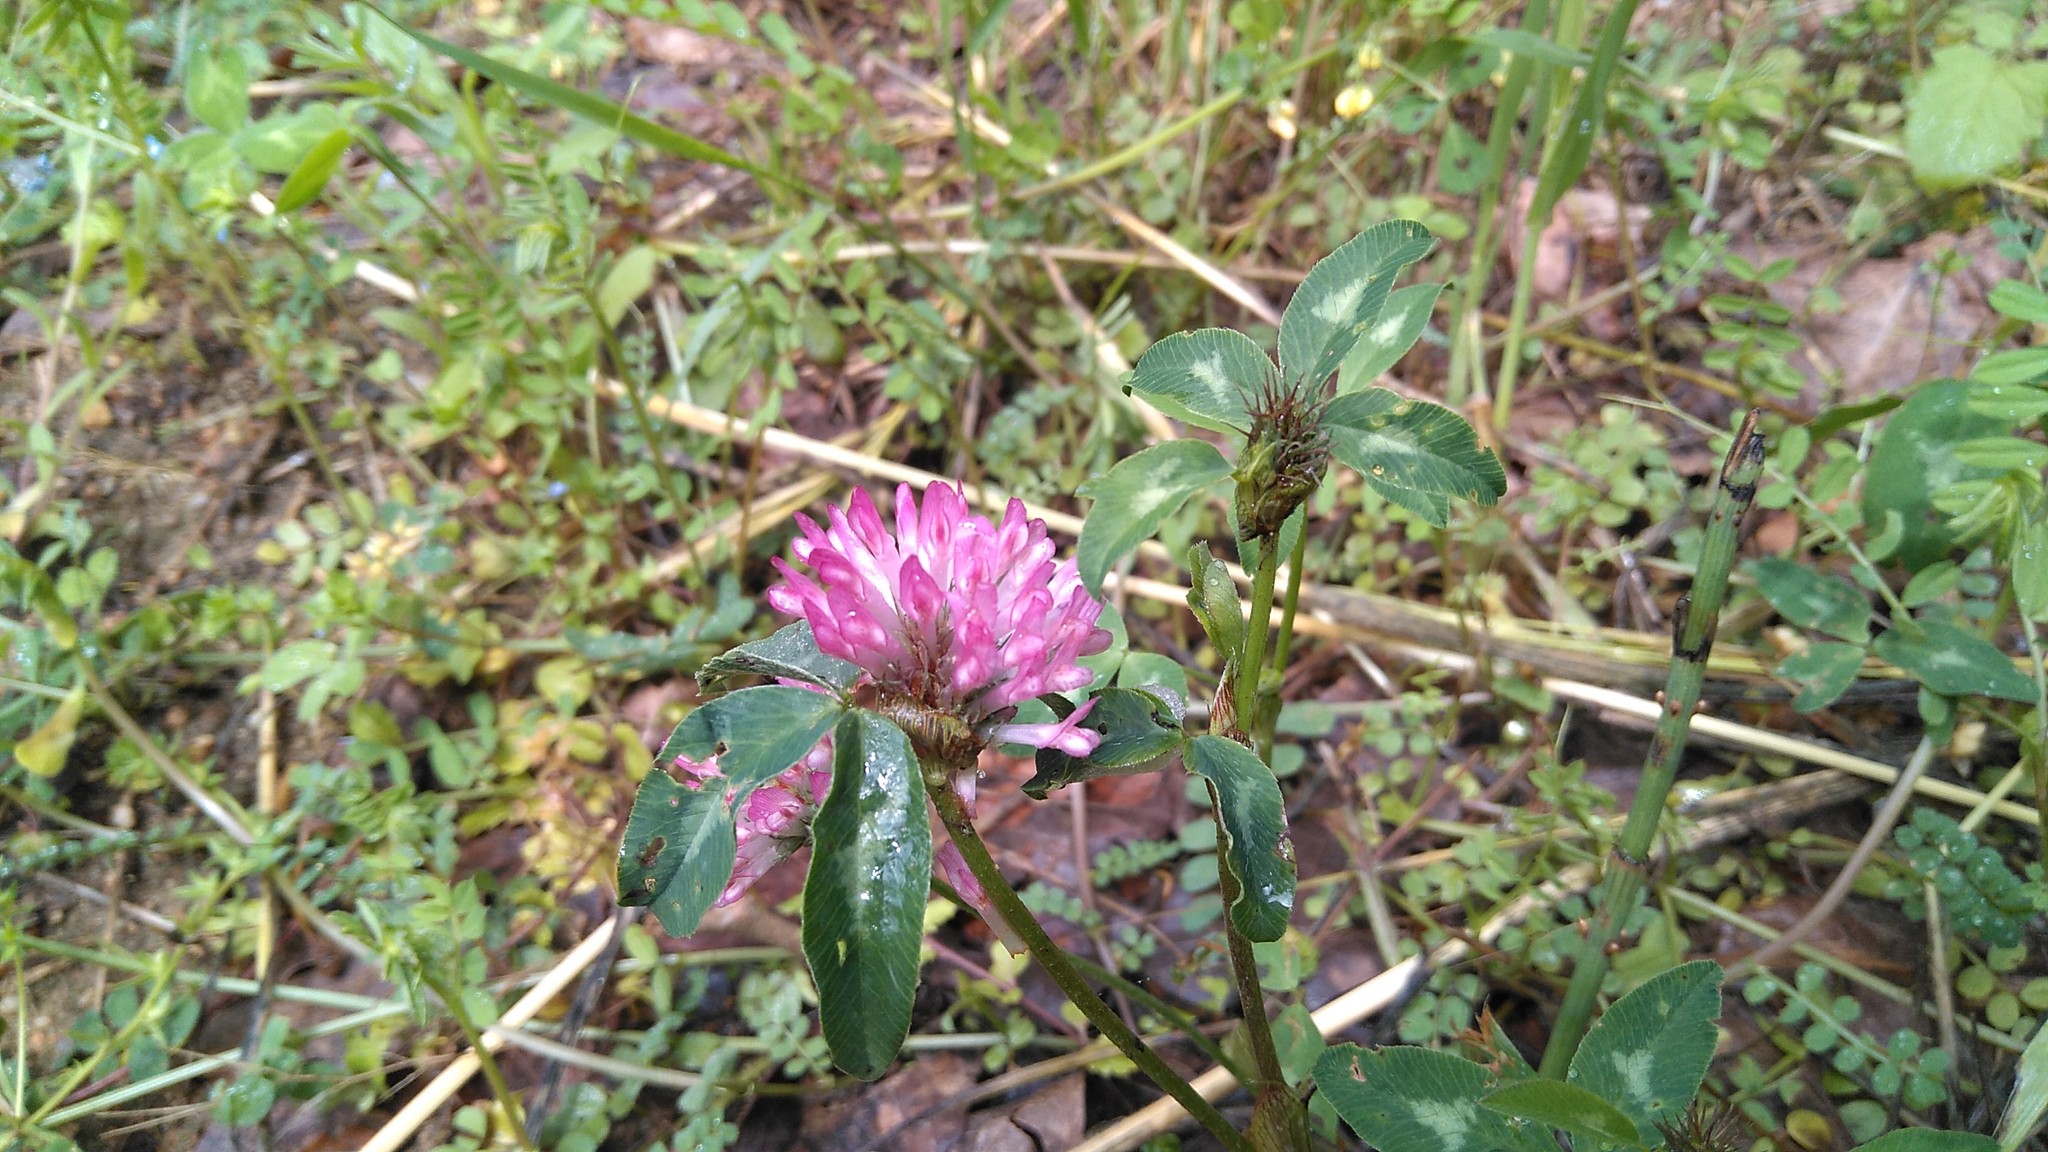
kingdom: Plantae
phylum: Tracheophyta
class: Magnoliopsida
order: Fabales
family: Fabaceae
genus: Trifolium
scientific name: Trifolium pratense
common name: Red clover
